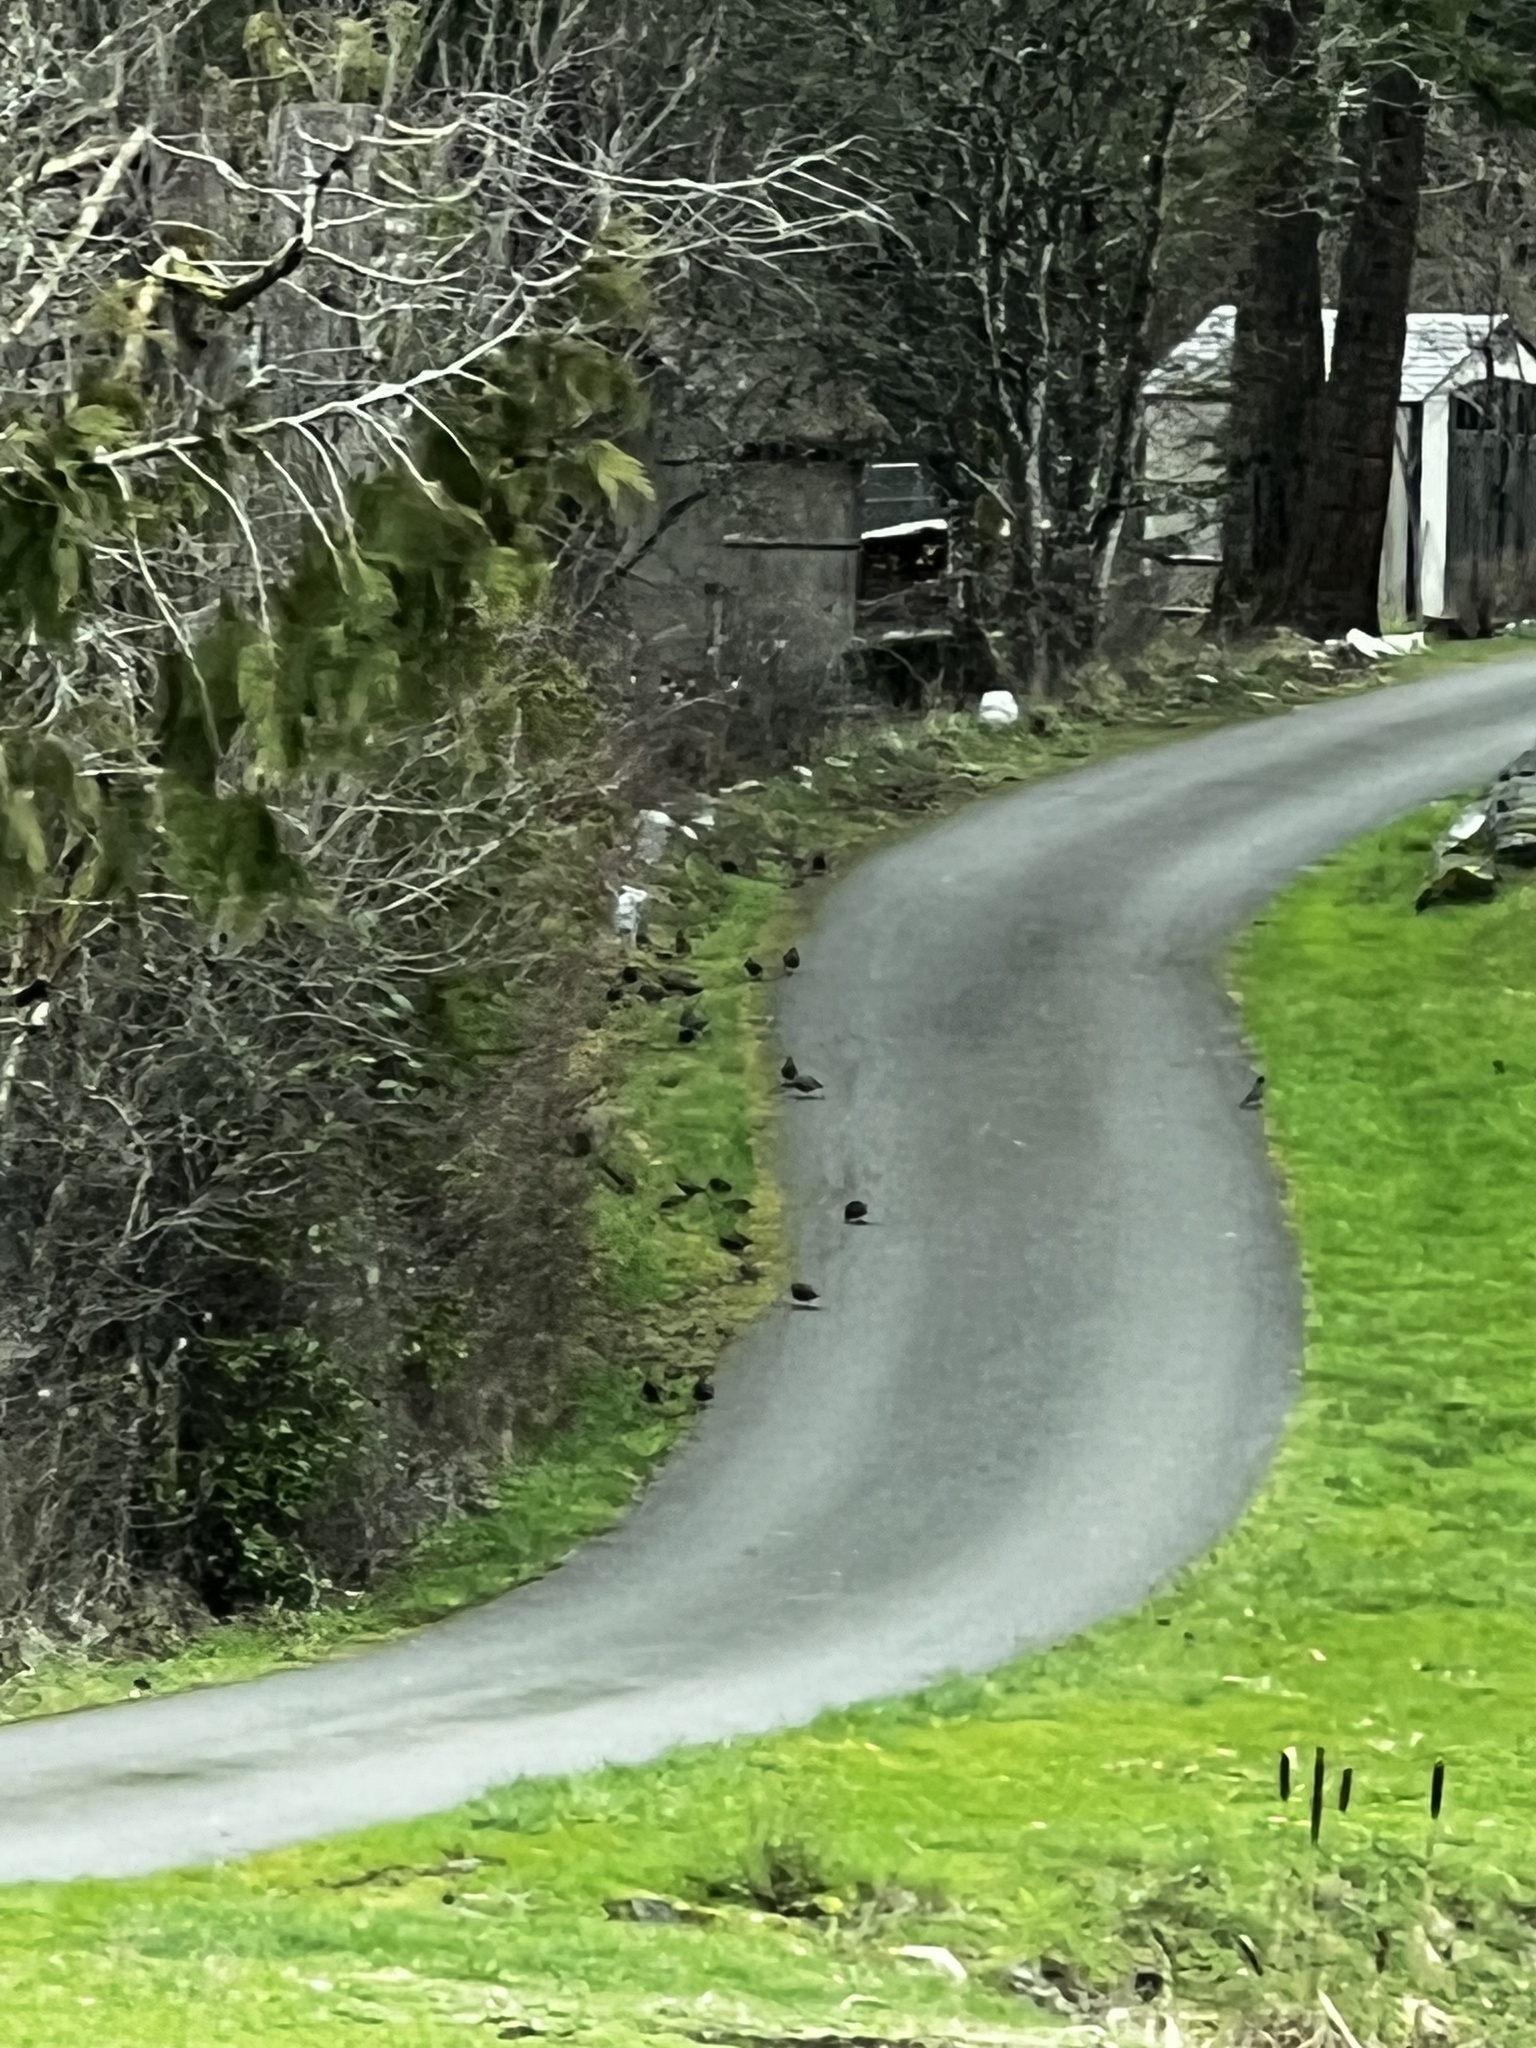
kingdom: Animalia
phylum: Chordata
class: Aves
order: Galliformes
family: Odontophoridae
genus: Callipepla
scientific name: Callipepla californica
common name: California quail
